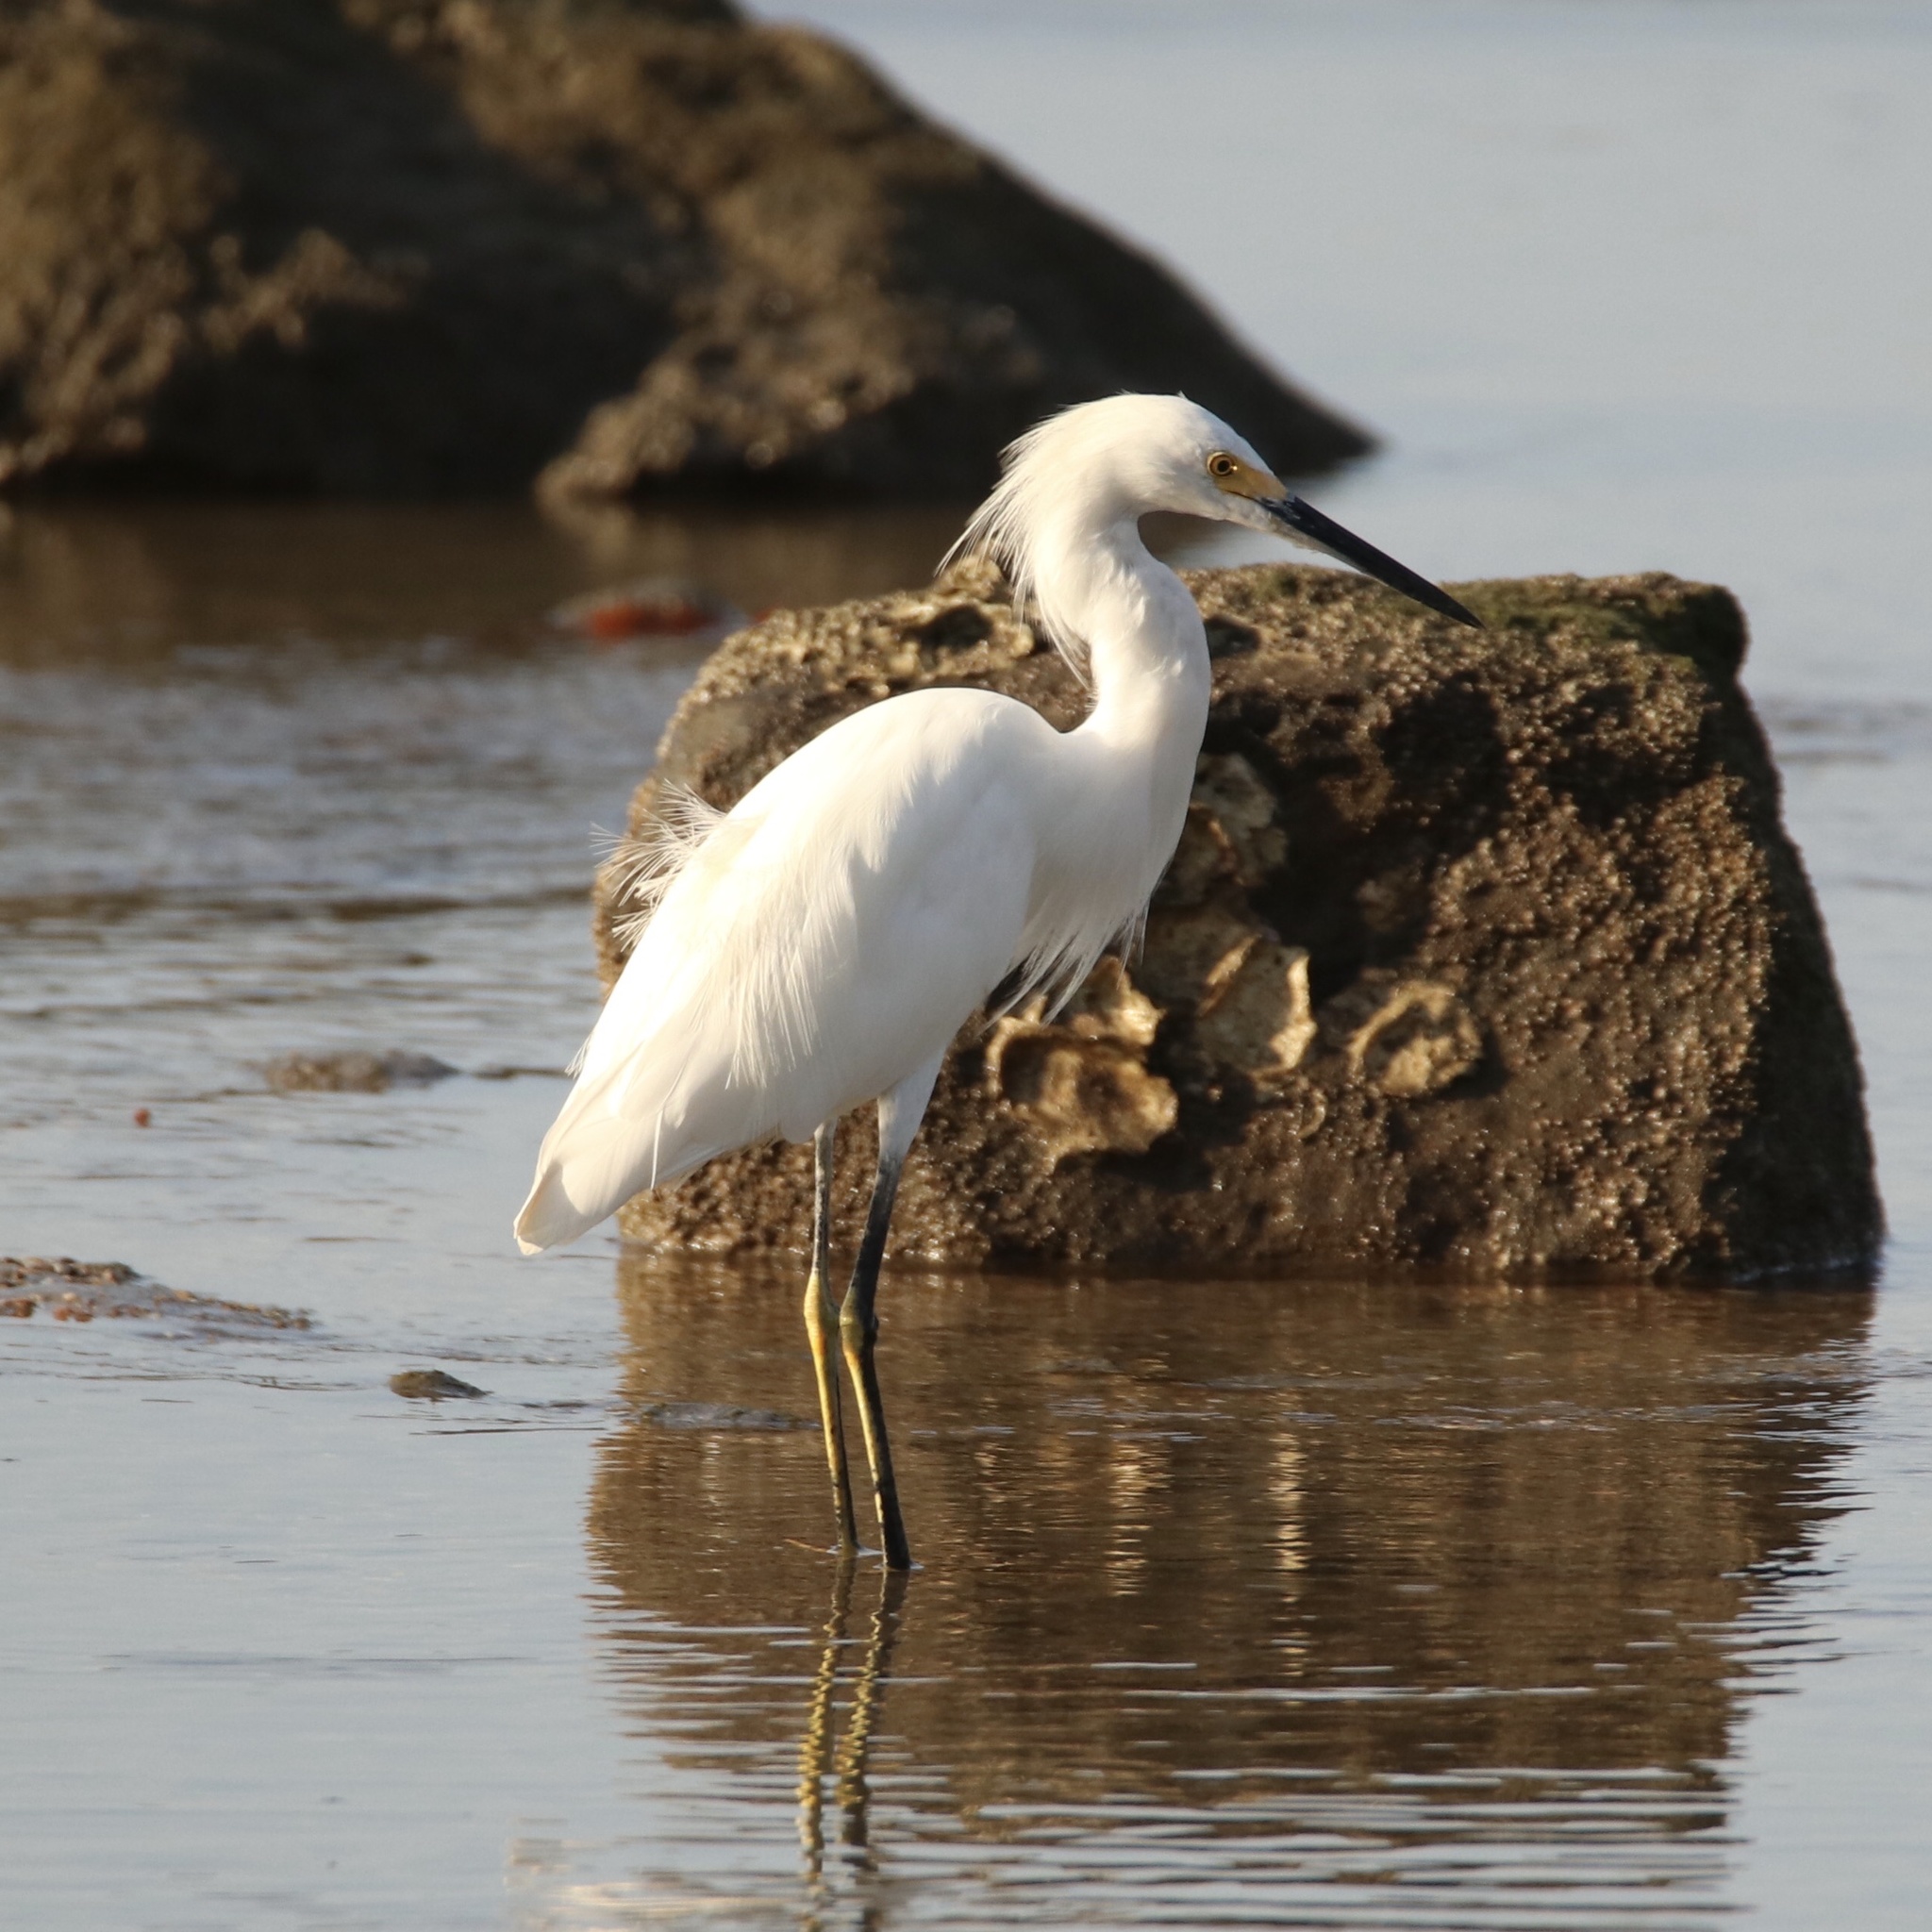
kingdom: Animalia
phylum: Chordata
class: Aves
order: Pelecaniformes
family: Ardeidae
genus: Egretta
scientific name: Egretta thula
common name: Snowy egret
